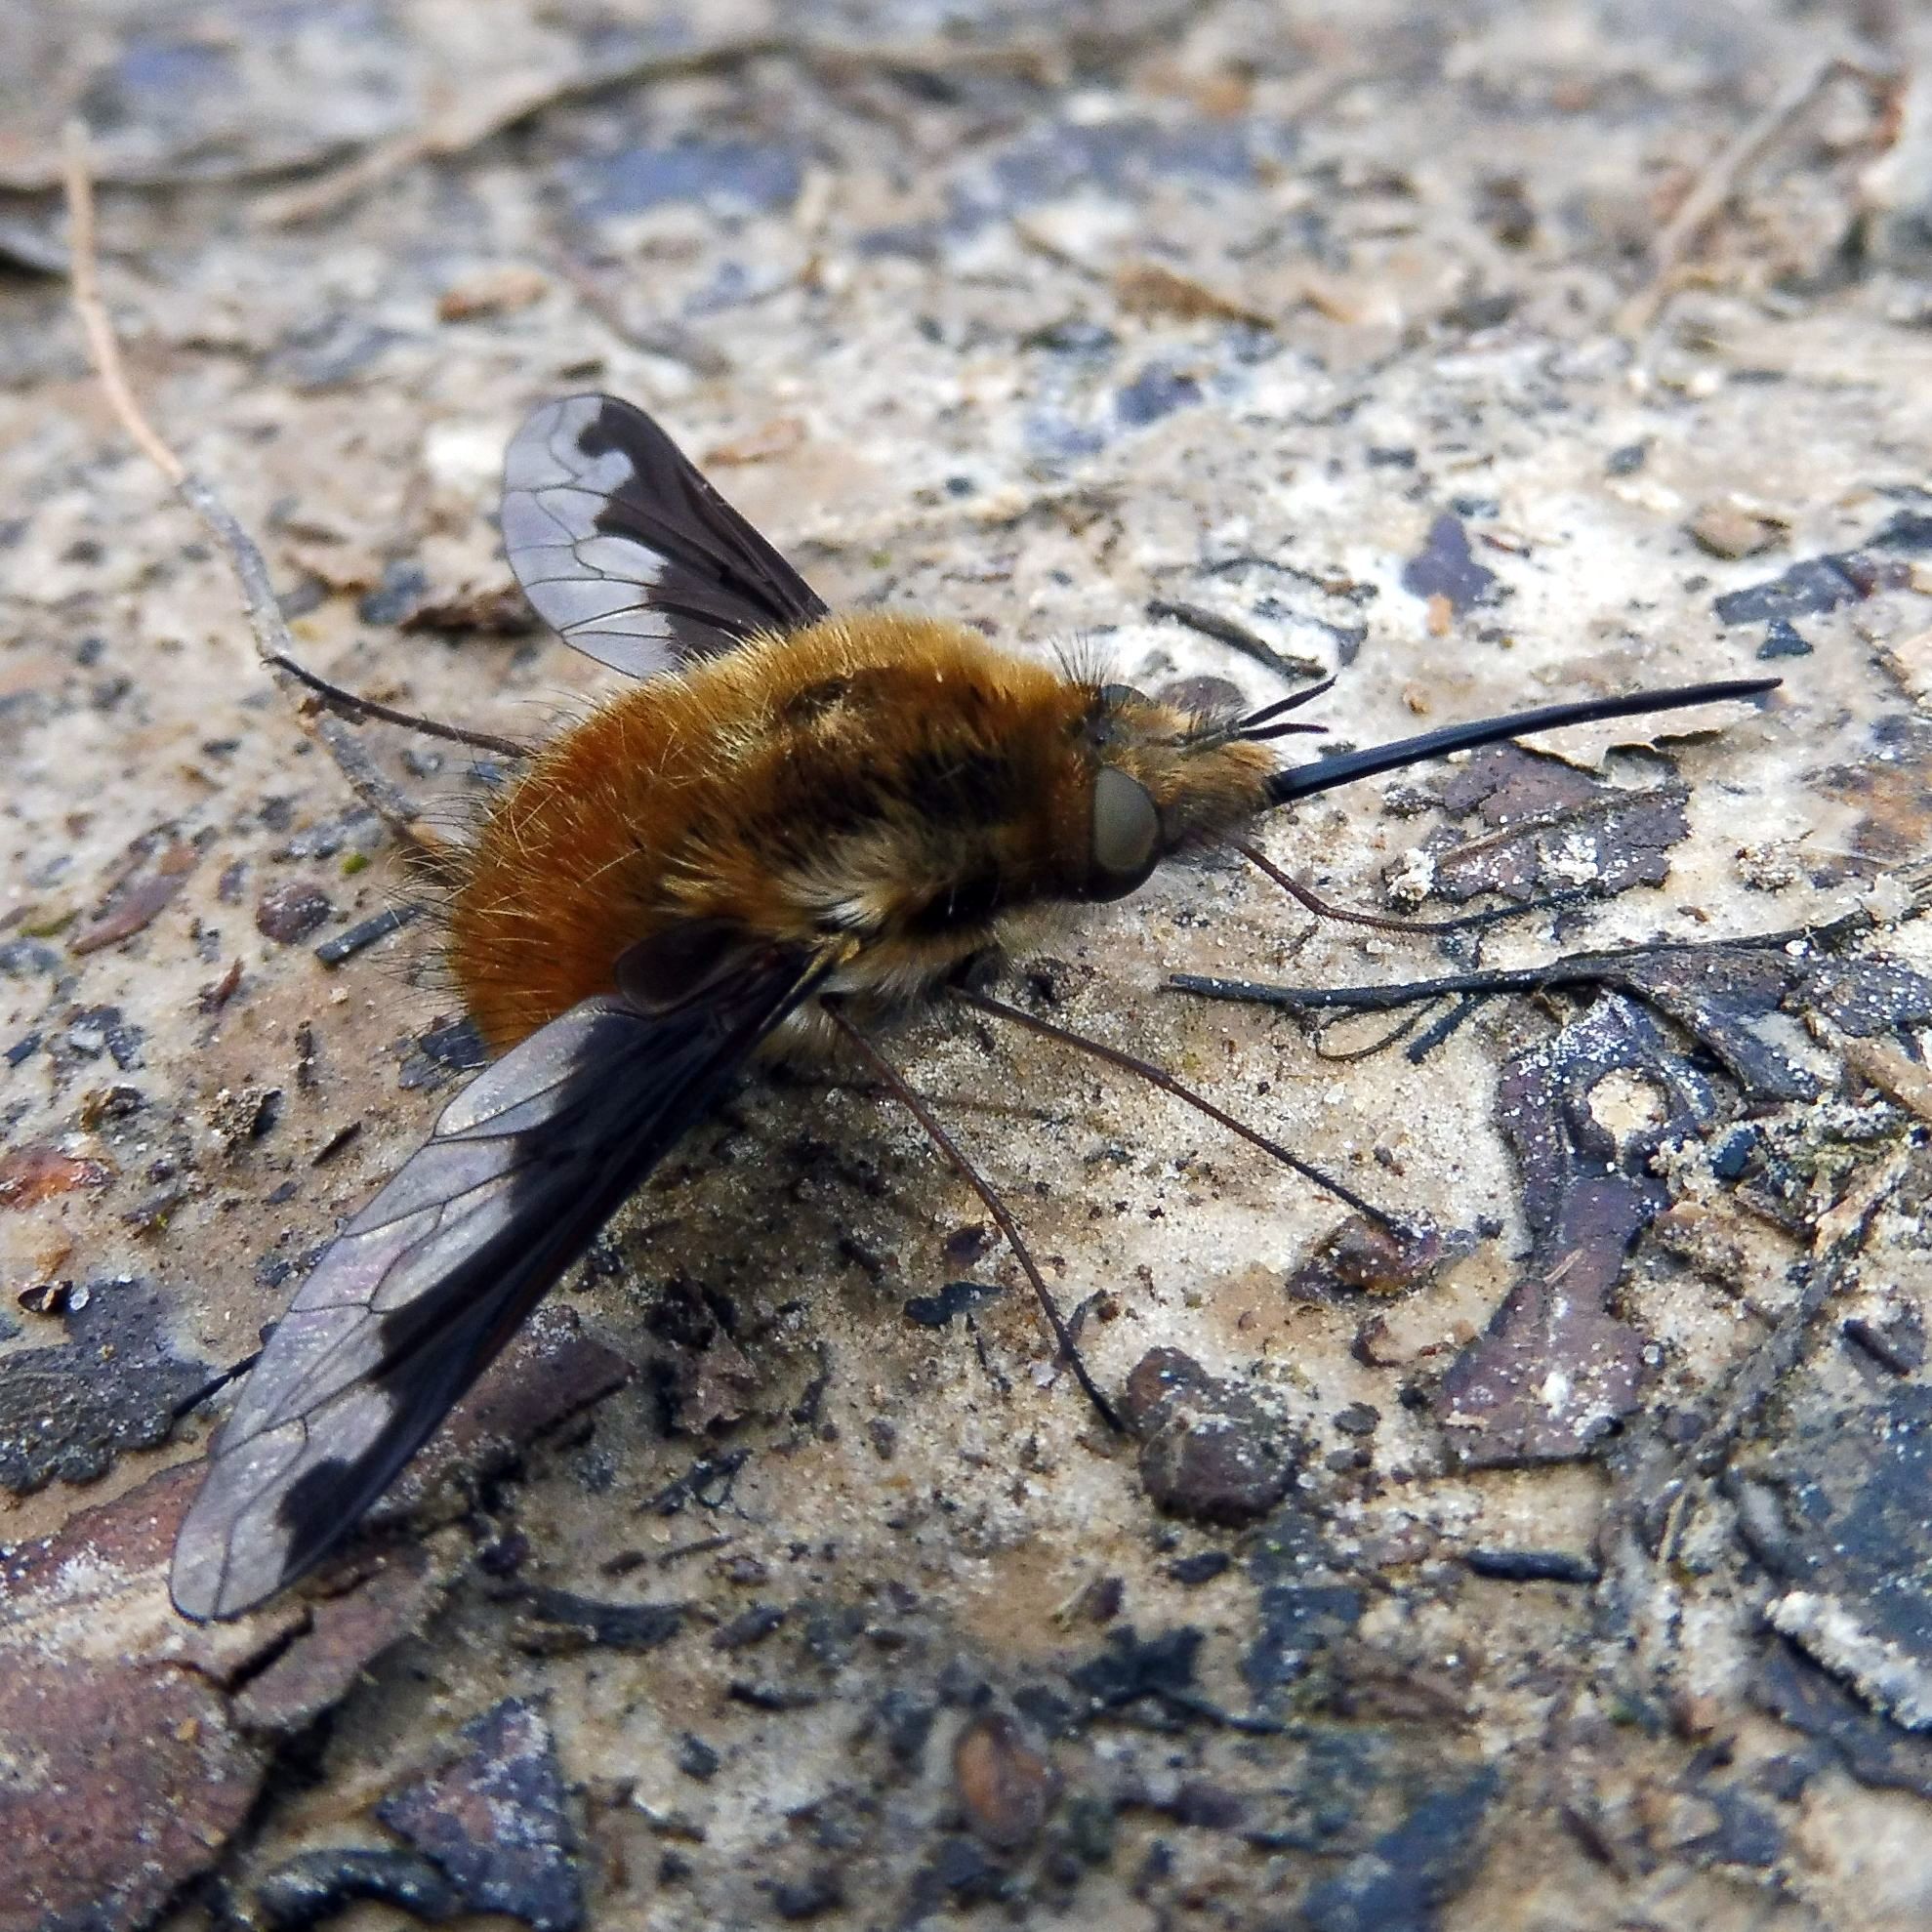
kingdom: Animalia
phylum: Arthropoda
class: Insecta
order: Diptera
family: Bombyliidae
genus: Bombylius
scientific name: Bombylius major
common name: Bee fly
